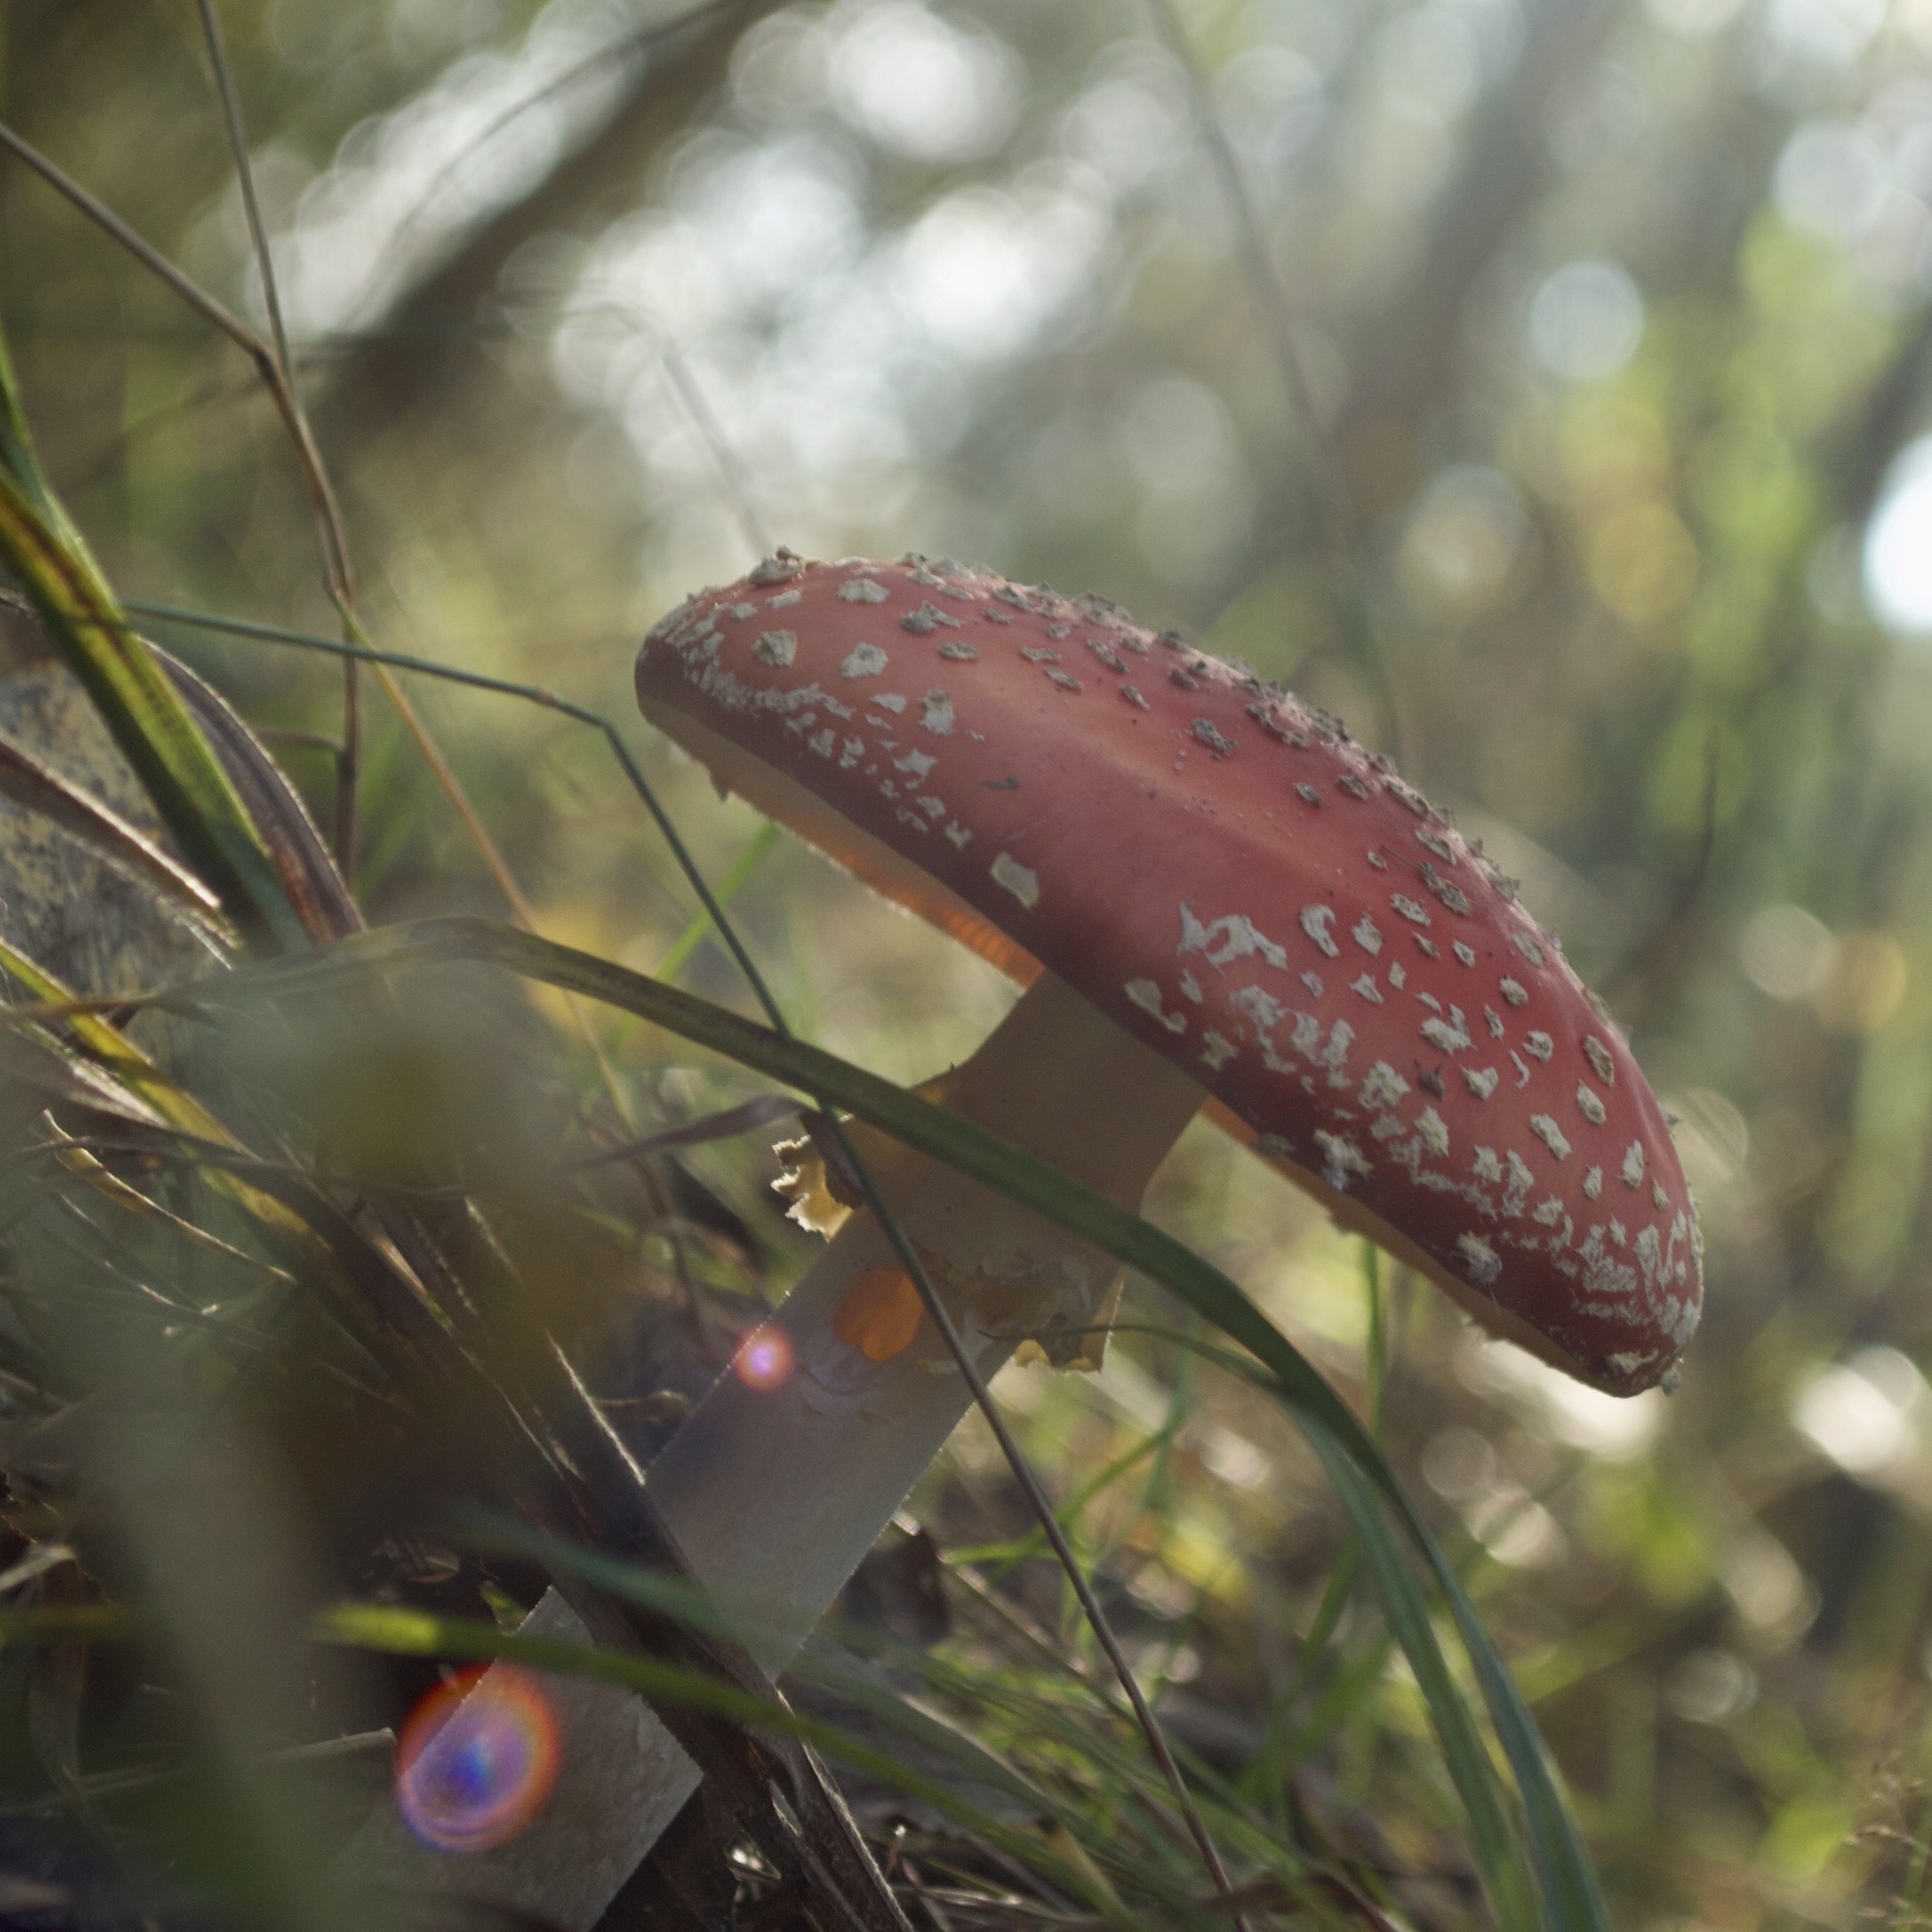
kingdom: Fungi
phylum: Basidiomycota
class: Agaricomycetes
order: Agaricales
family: Amanitaceae
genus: Amanita
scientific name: Amanita muscaria
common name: Fly agaric
